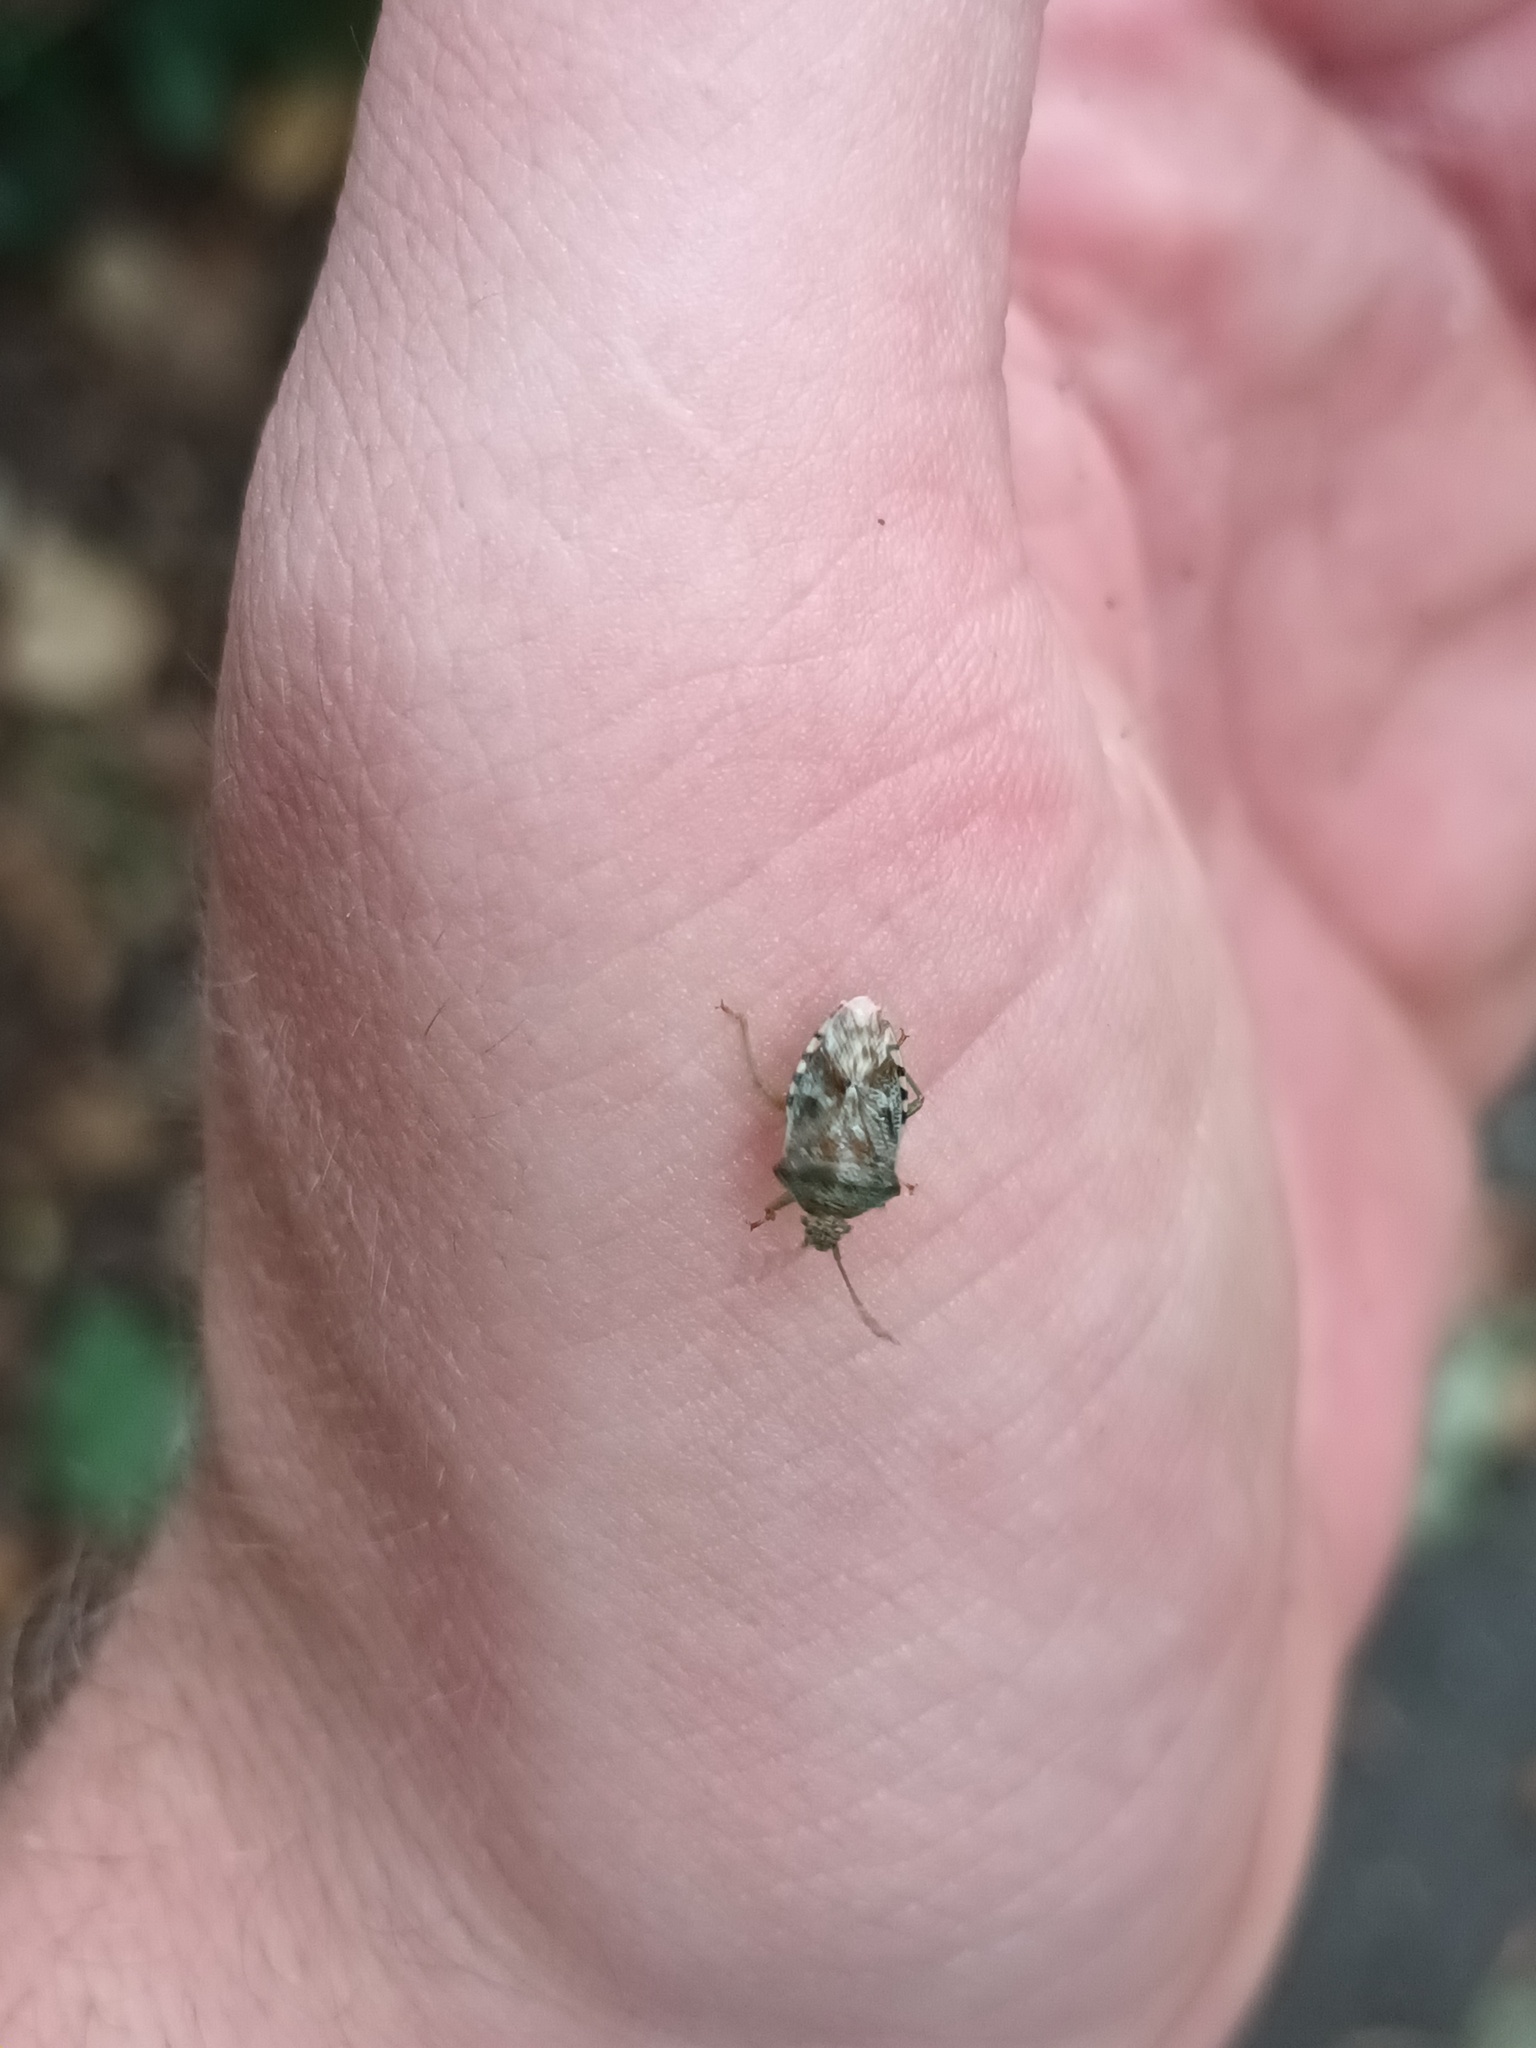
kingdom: Animalia
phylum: Arthropoda
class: Insecta
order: Hemiptera
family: Acanthosomatidae
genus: Elasmucha
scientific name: Elasmucha grisea
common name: Parent bug
